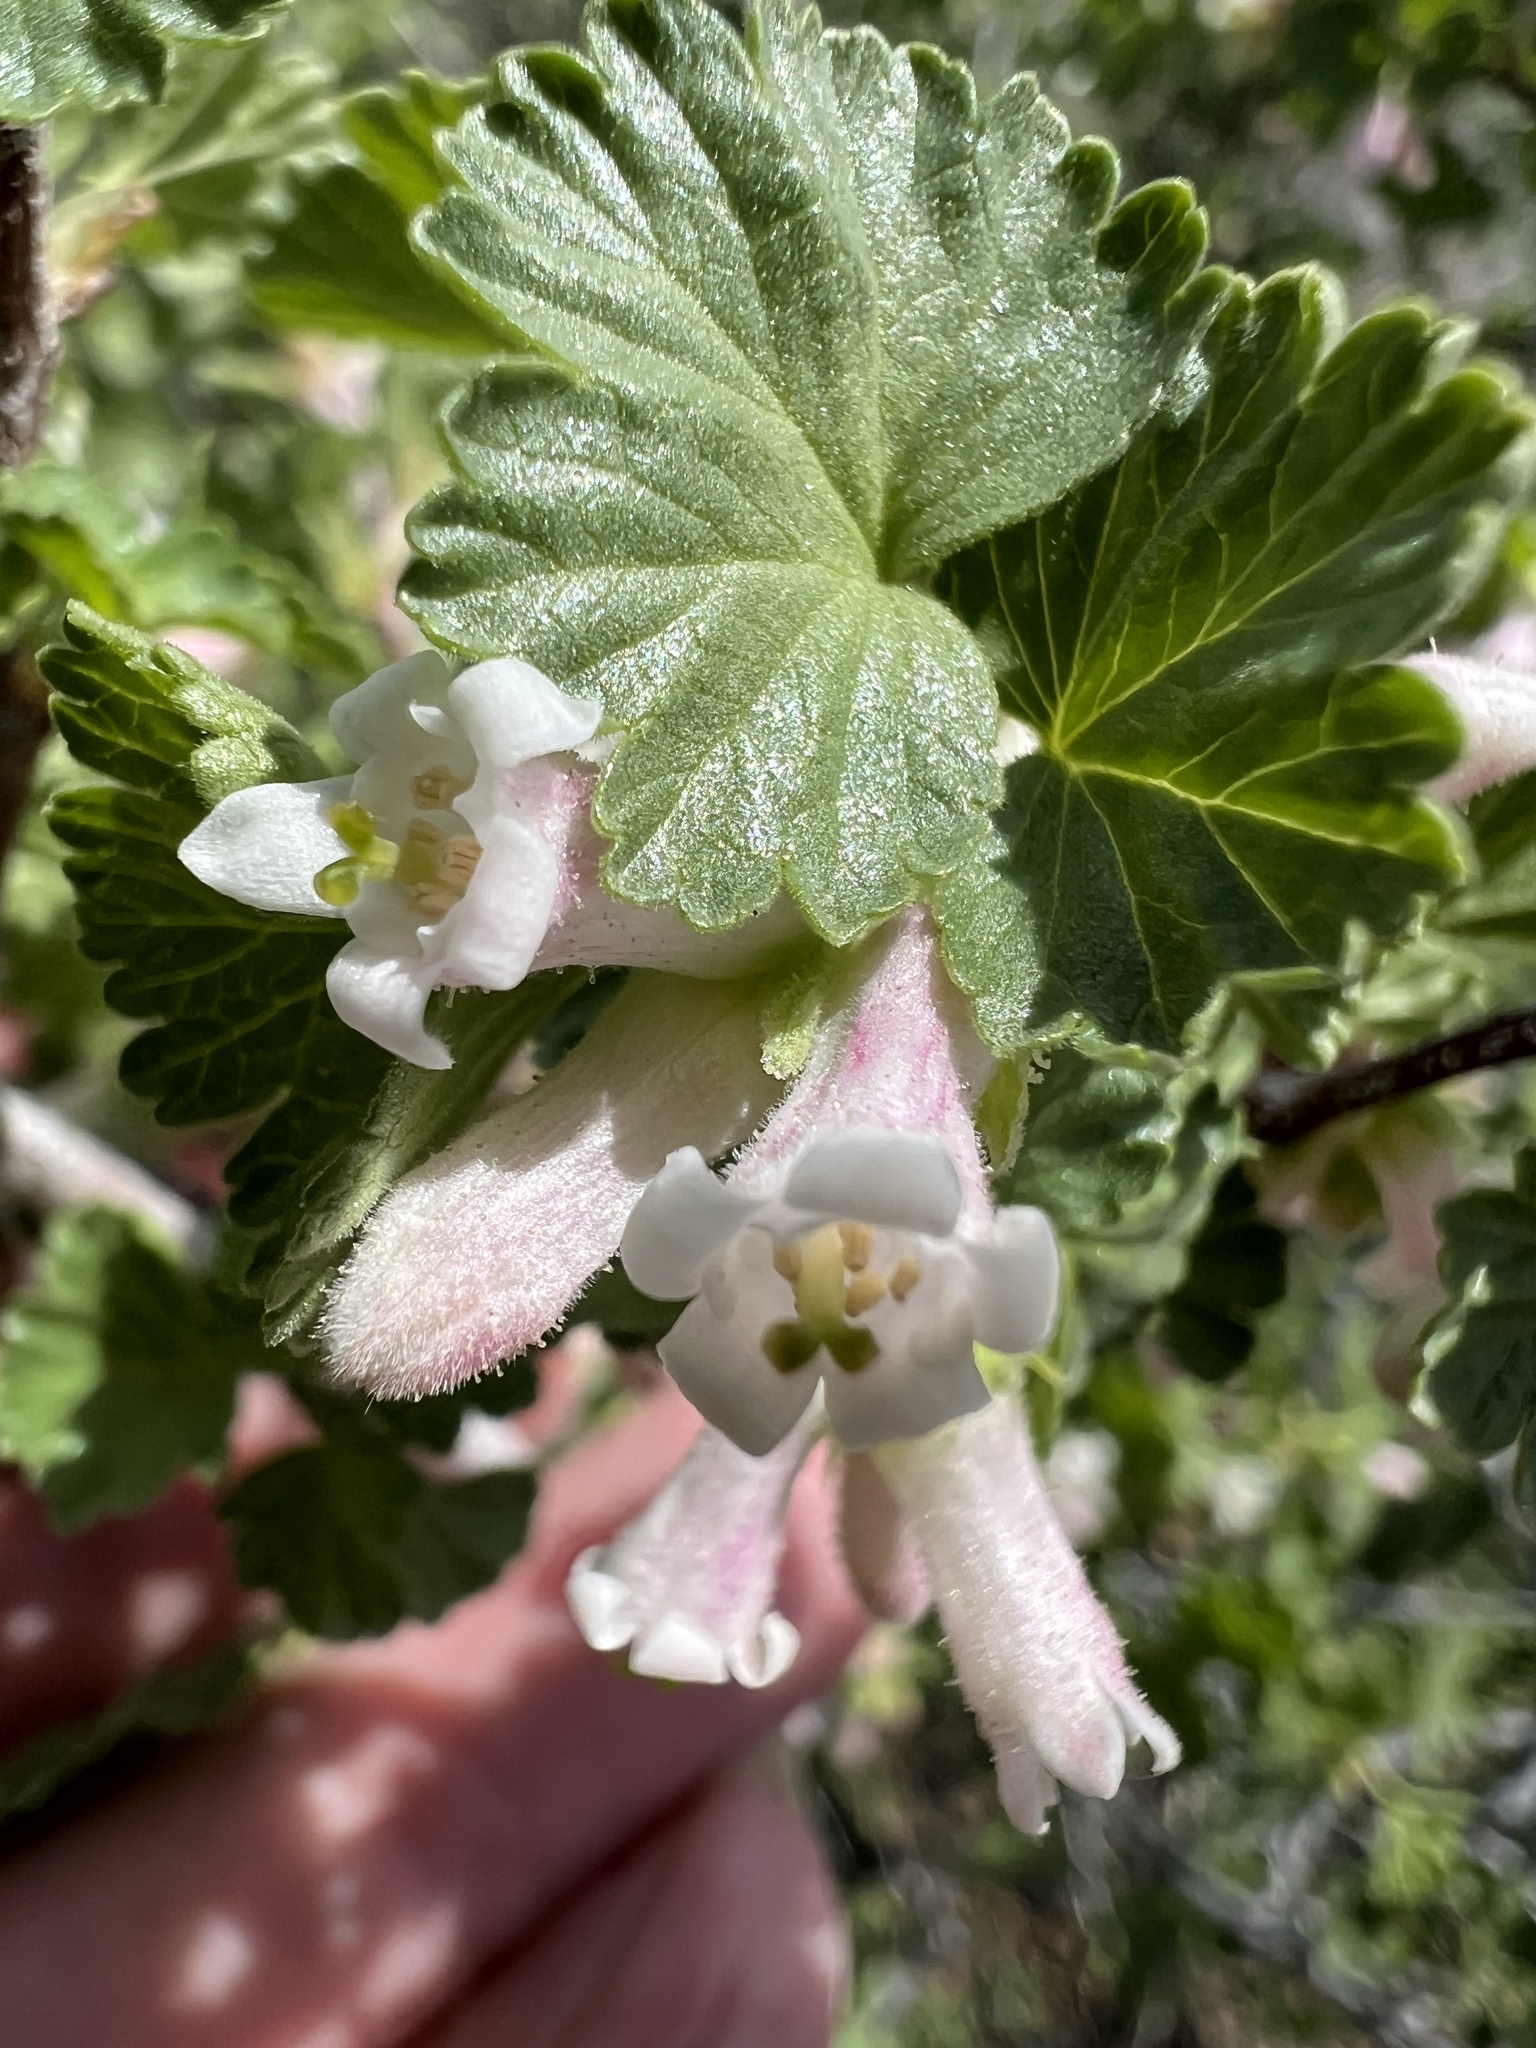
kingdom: Plantae
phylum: Tracheophyta
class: Magnoliopsida
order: Saxifragales
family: Grossulariaceae
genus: Ribes
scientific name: Ribes cereum
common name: Wax currant
